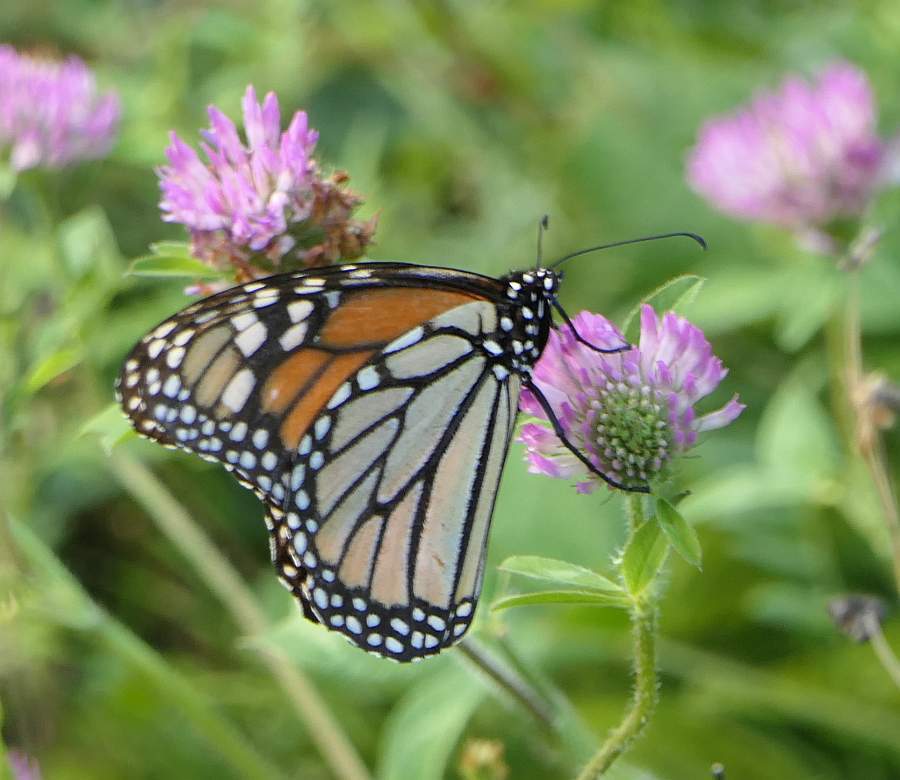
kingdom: Animalia
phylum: Arthropoda
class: Insecta
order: Lepidoptera
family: Nymphalidae
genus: Danaus
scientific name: Danaus plexippus
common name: Monarch
